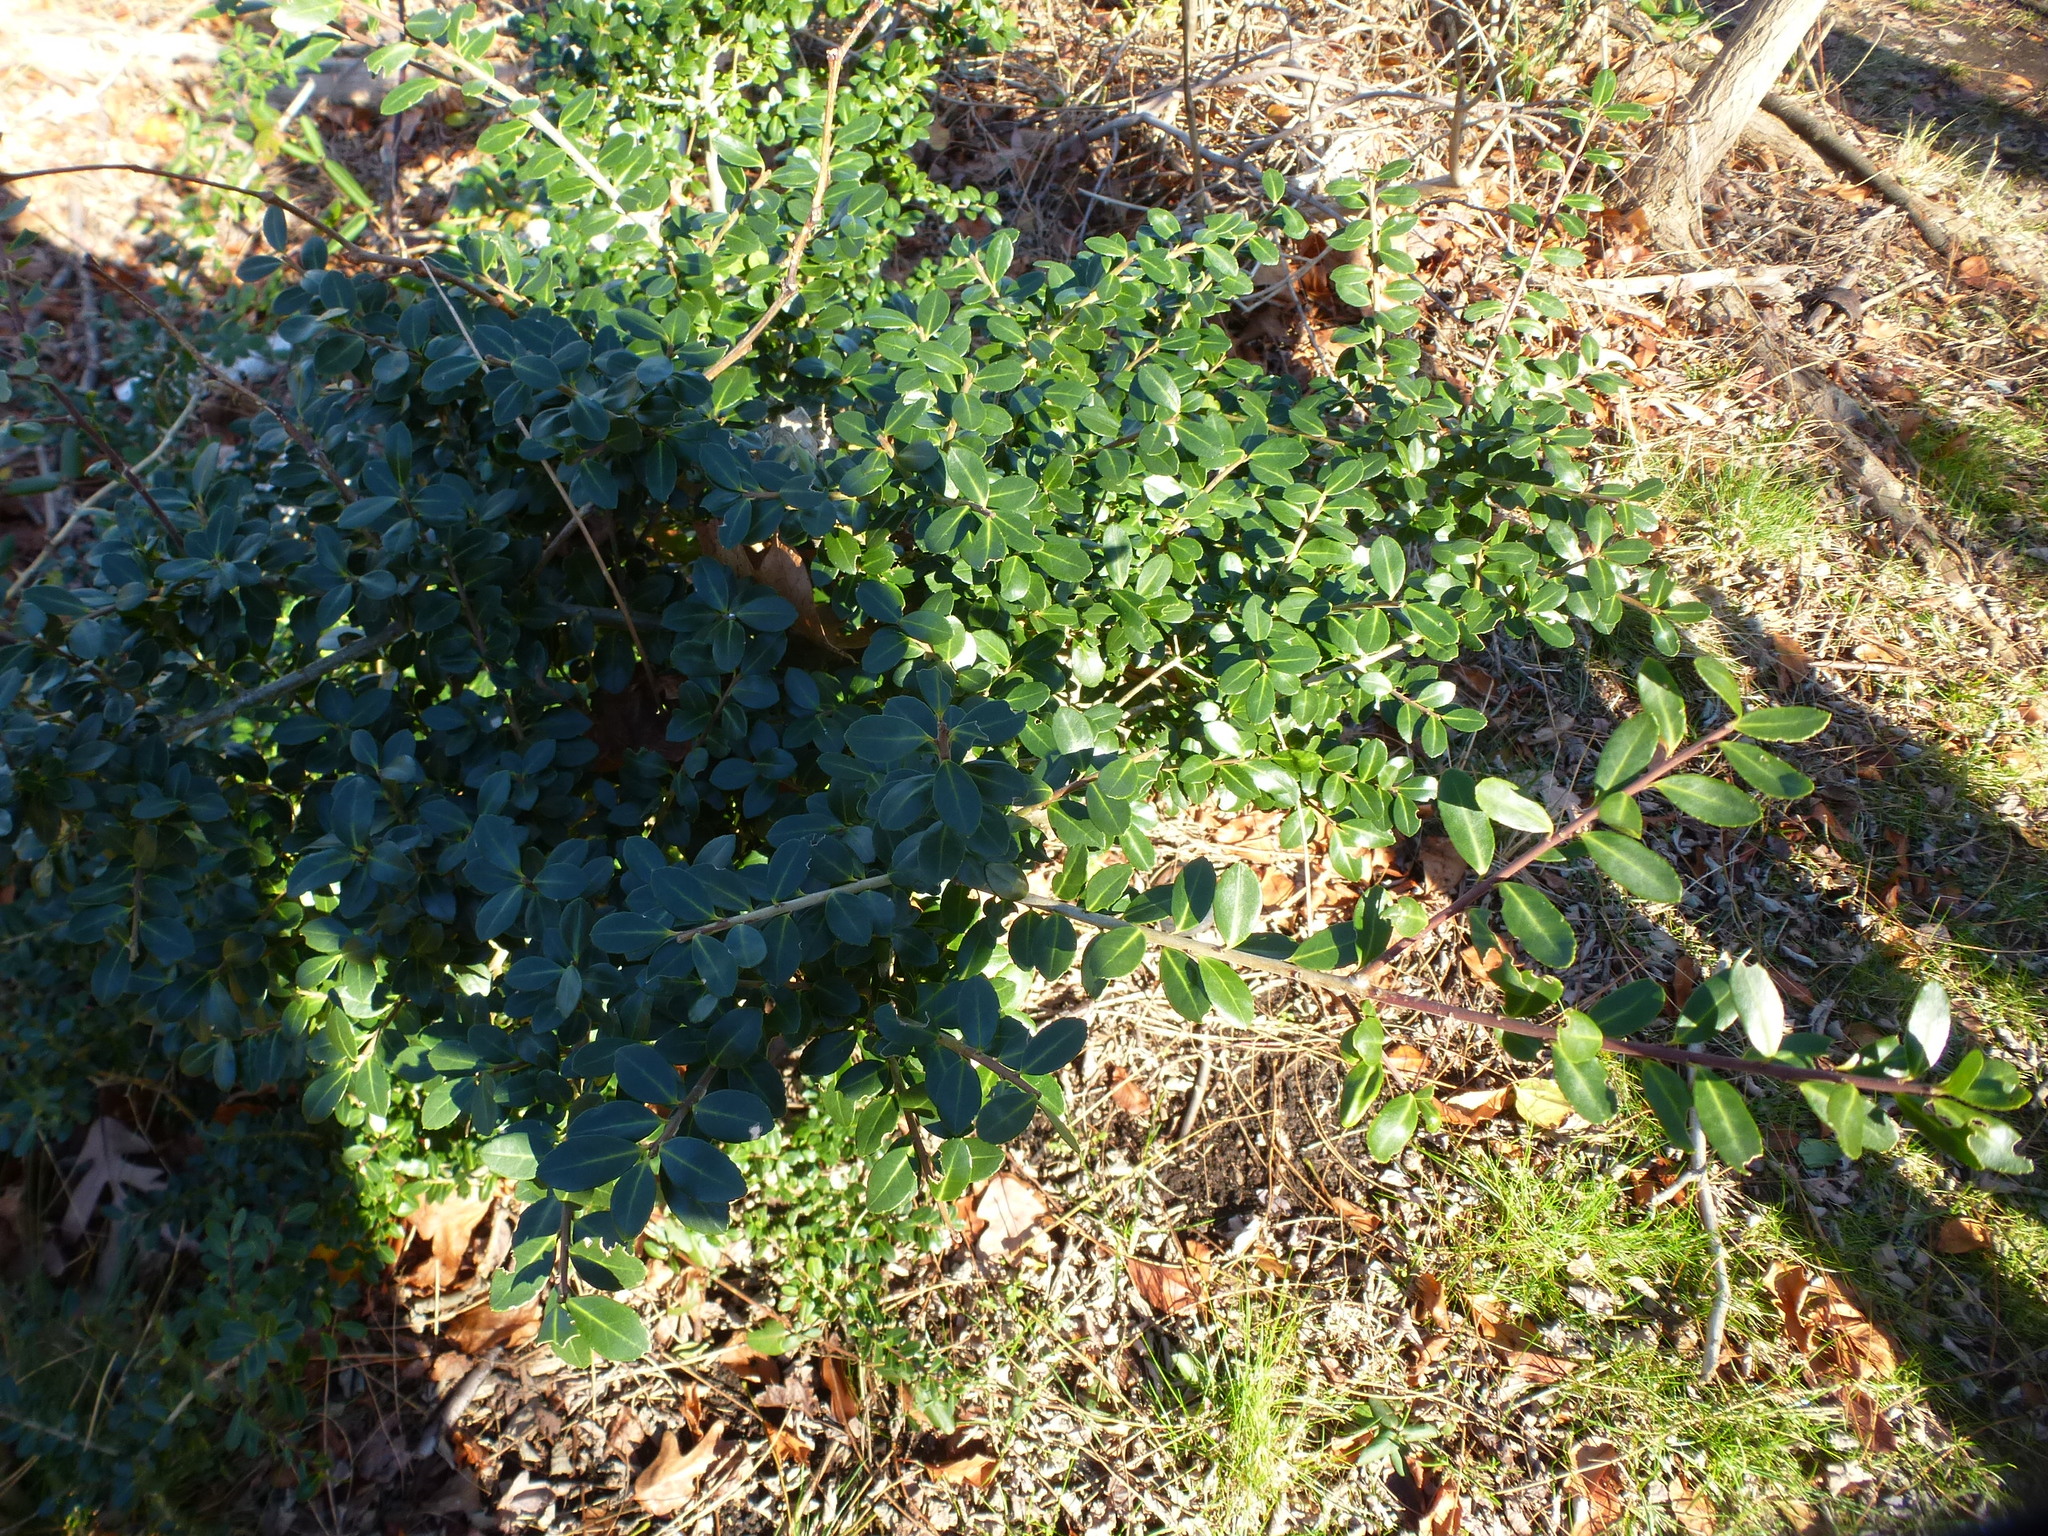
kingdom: Plantae
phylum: Tracheophyta
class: Magnoliopsida
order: Aquifoliales
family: Aquifoliaceae
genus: Ilex
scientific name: Ilex crenata
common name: Japanese holly
